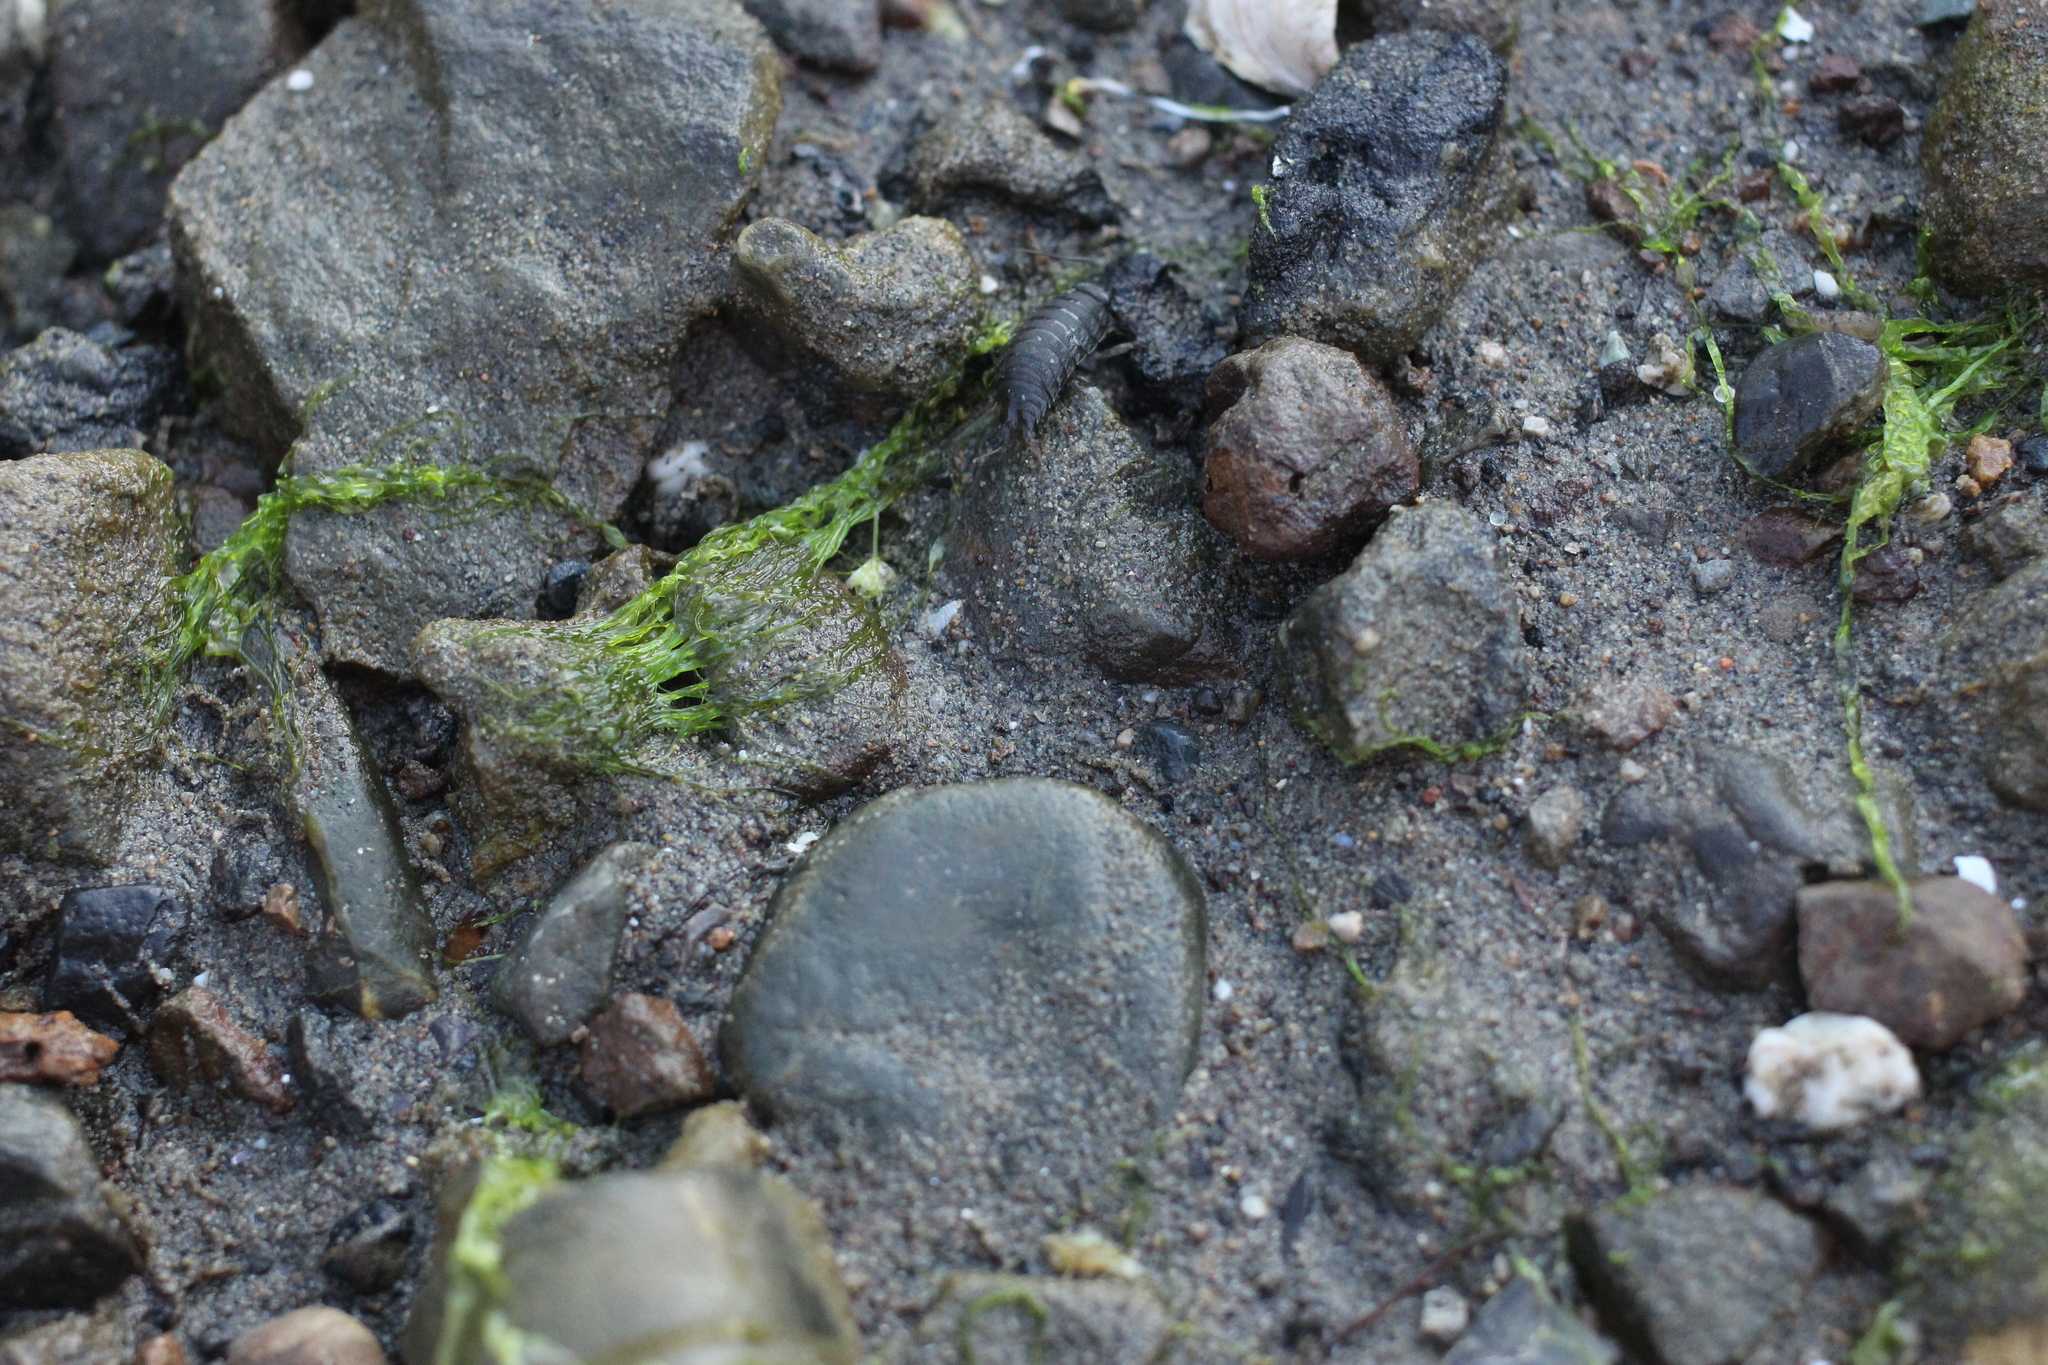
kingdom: Animalia
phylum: Arthropoda
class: Malacostraca
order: Isopoda
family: Ligiidae
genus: Ligia
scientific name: Ligia occidentalis
